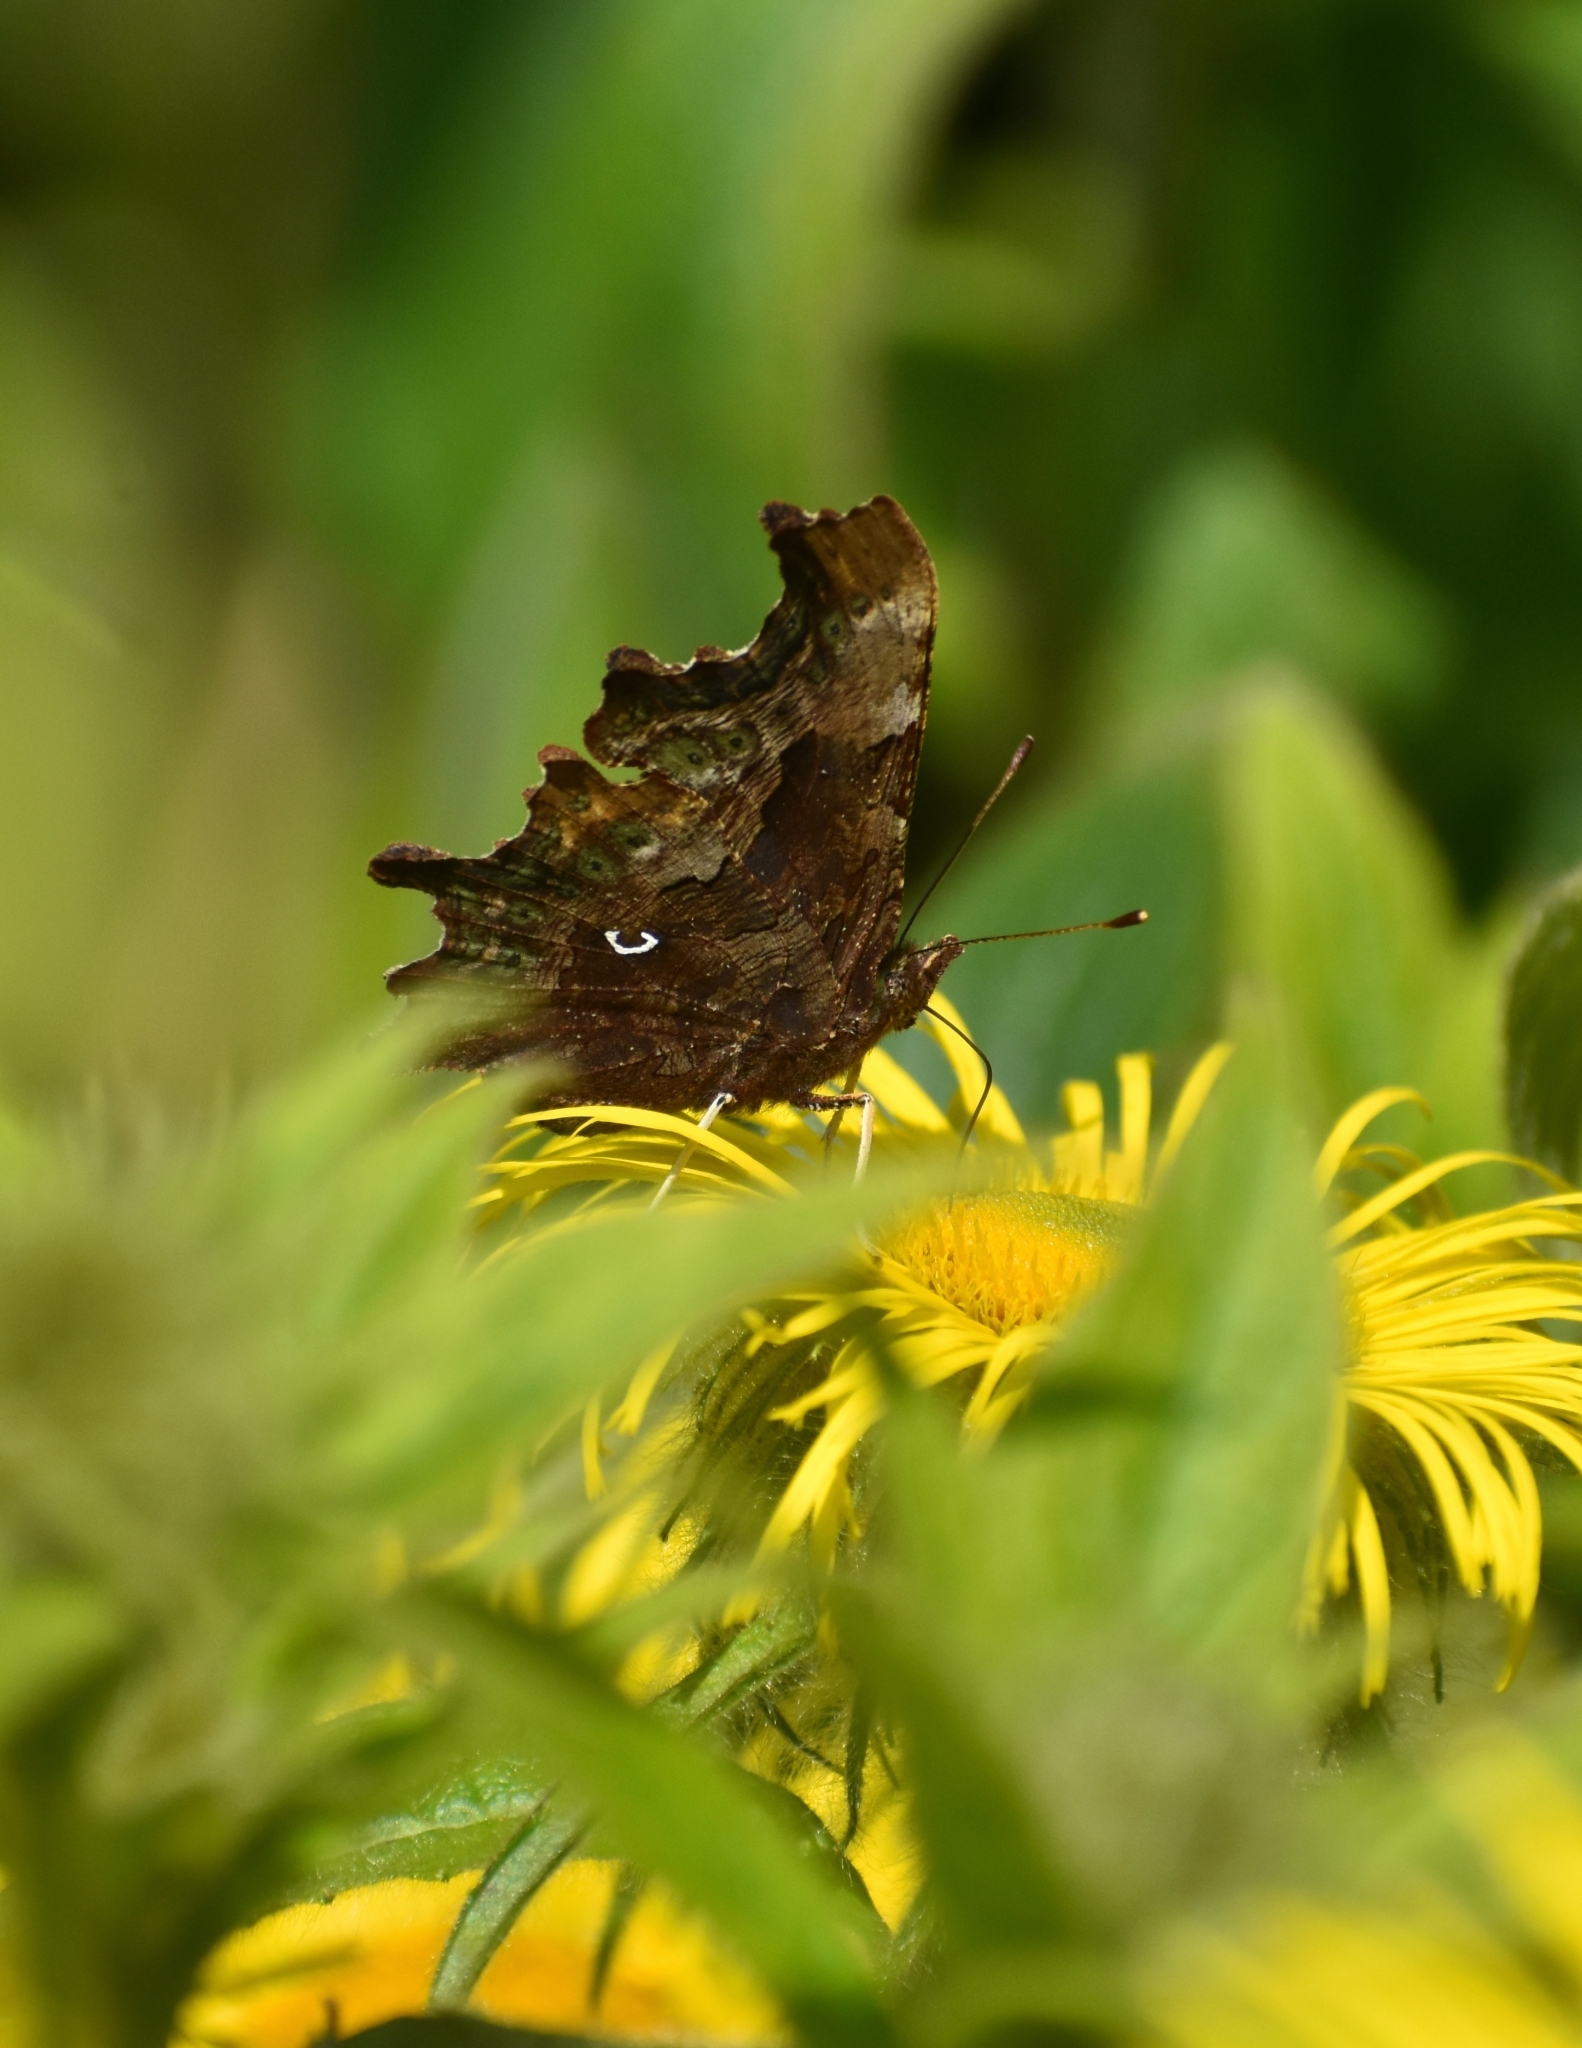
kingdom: Animalia
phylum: Arthropoda
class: Insecta
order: Lepidoptera
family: Nymphalidae
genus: Polygonia
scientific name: Polygonia c-album
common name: Comma
